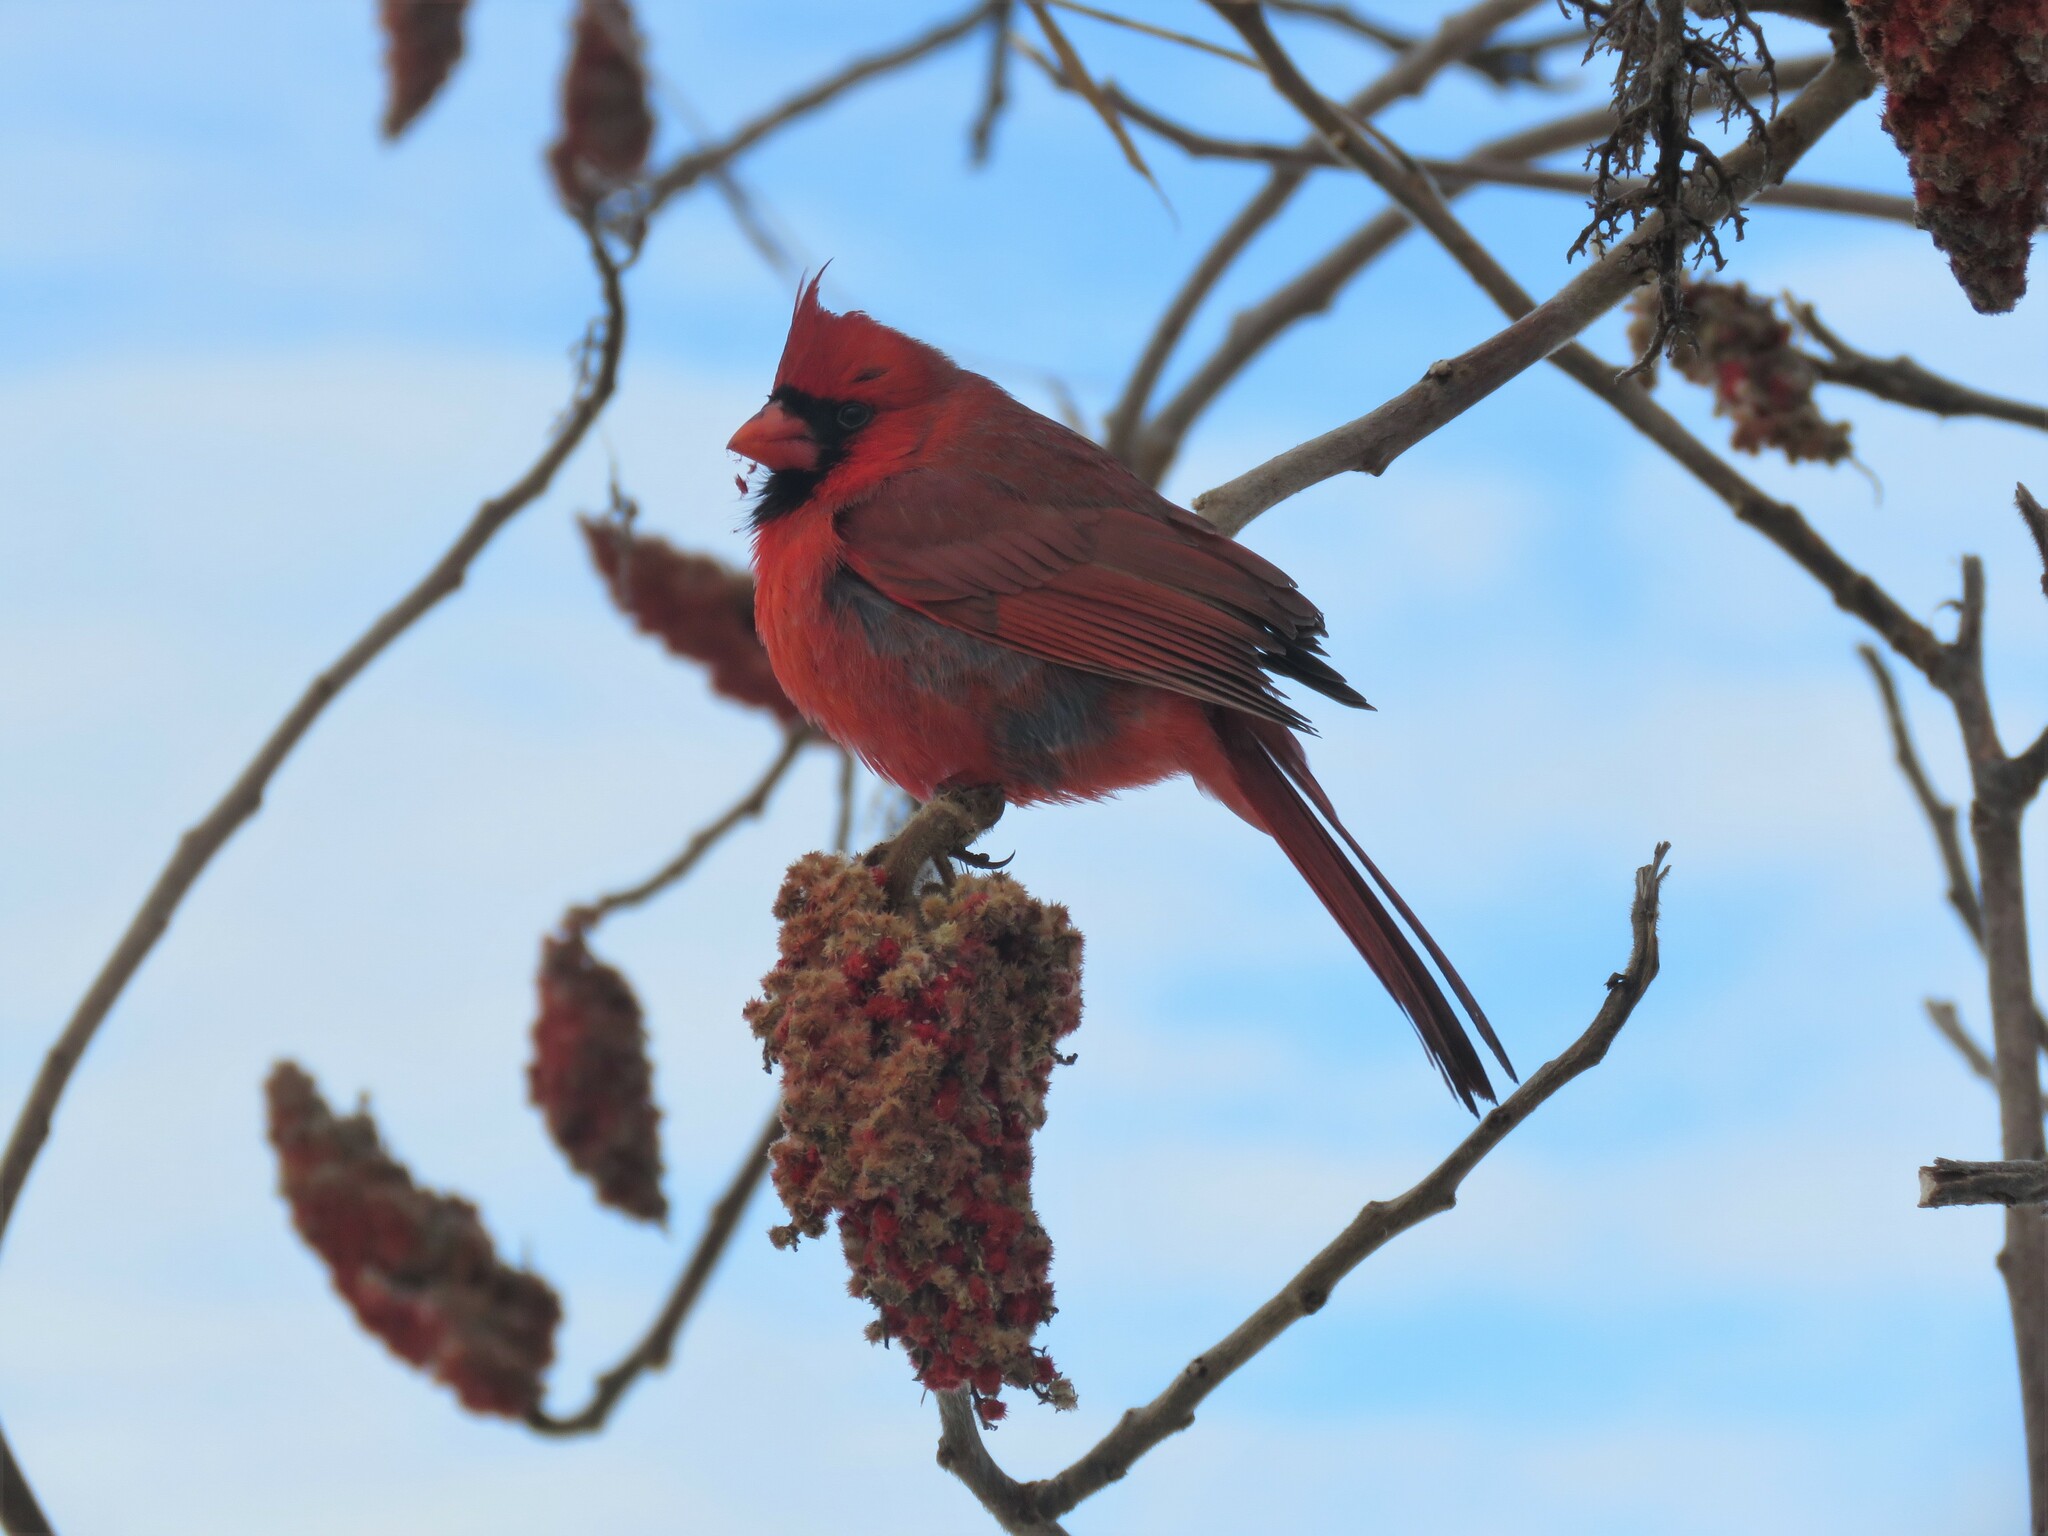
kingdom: Animalia
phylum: Chordata
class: Aves
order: Passeriformes
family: Cardinalidae
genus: Cardinalis
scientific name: Cardinalis cardinalis
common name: Northern cardinal
